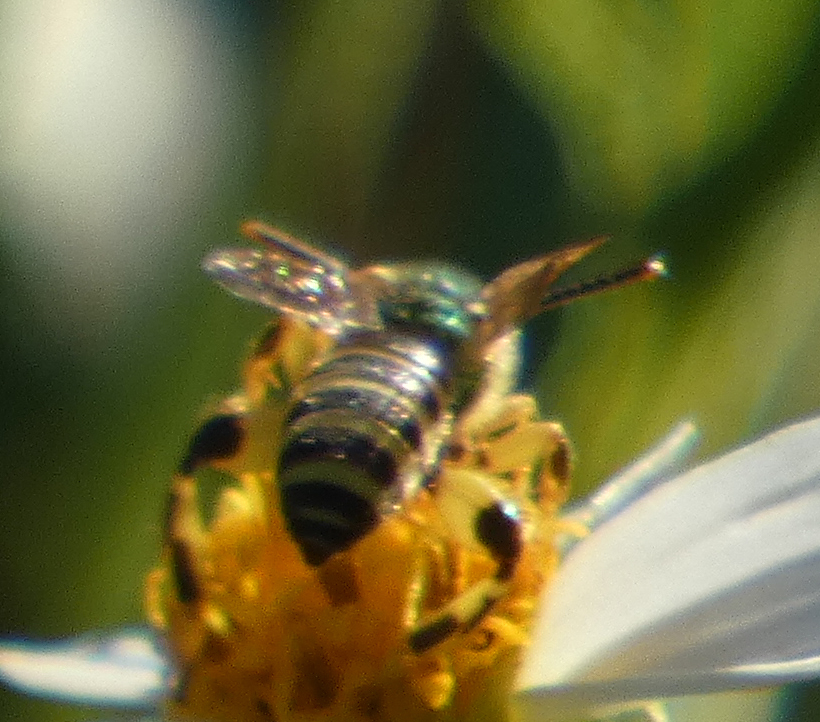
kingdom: Animalia
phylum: Arthropoda
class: Insecta
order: Hymenoptera
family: Halictidae
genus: Agapostemon
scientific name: Agapostemon splendens
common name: Brown-winged striped sweat bee
